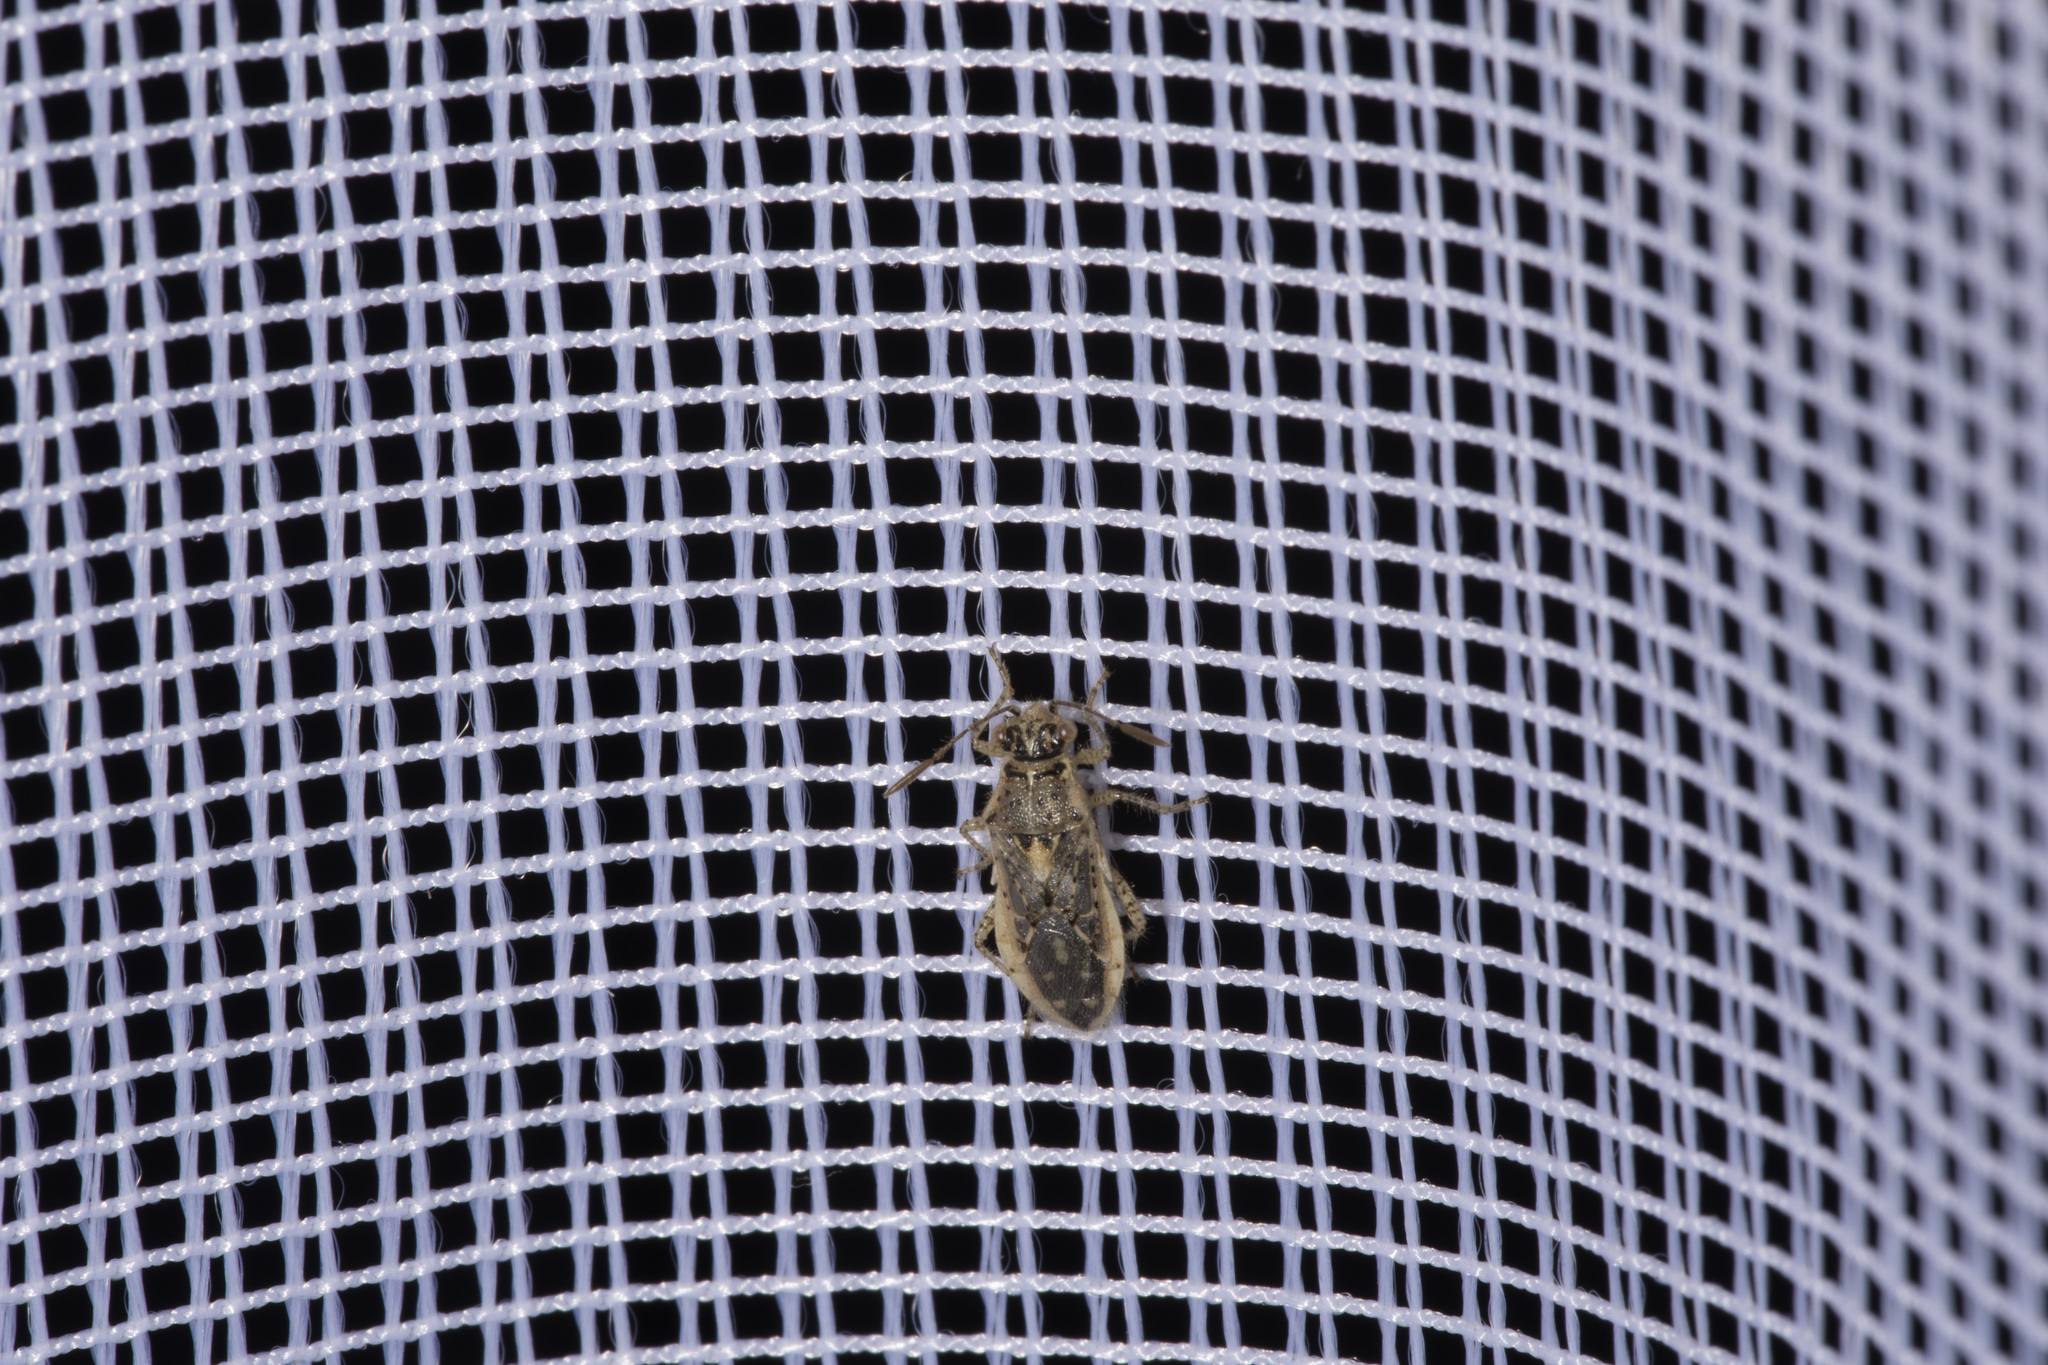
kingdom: Animalia
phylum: Arthropoda
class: Insecta
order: Hemiptera
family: Rhopalidae
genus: Brachycarenus
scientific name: Brachycarenus tigrinus
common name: Scentless plant bug
